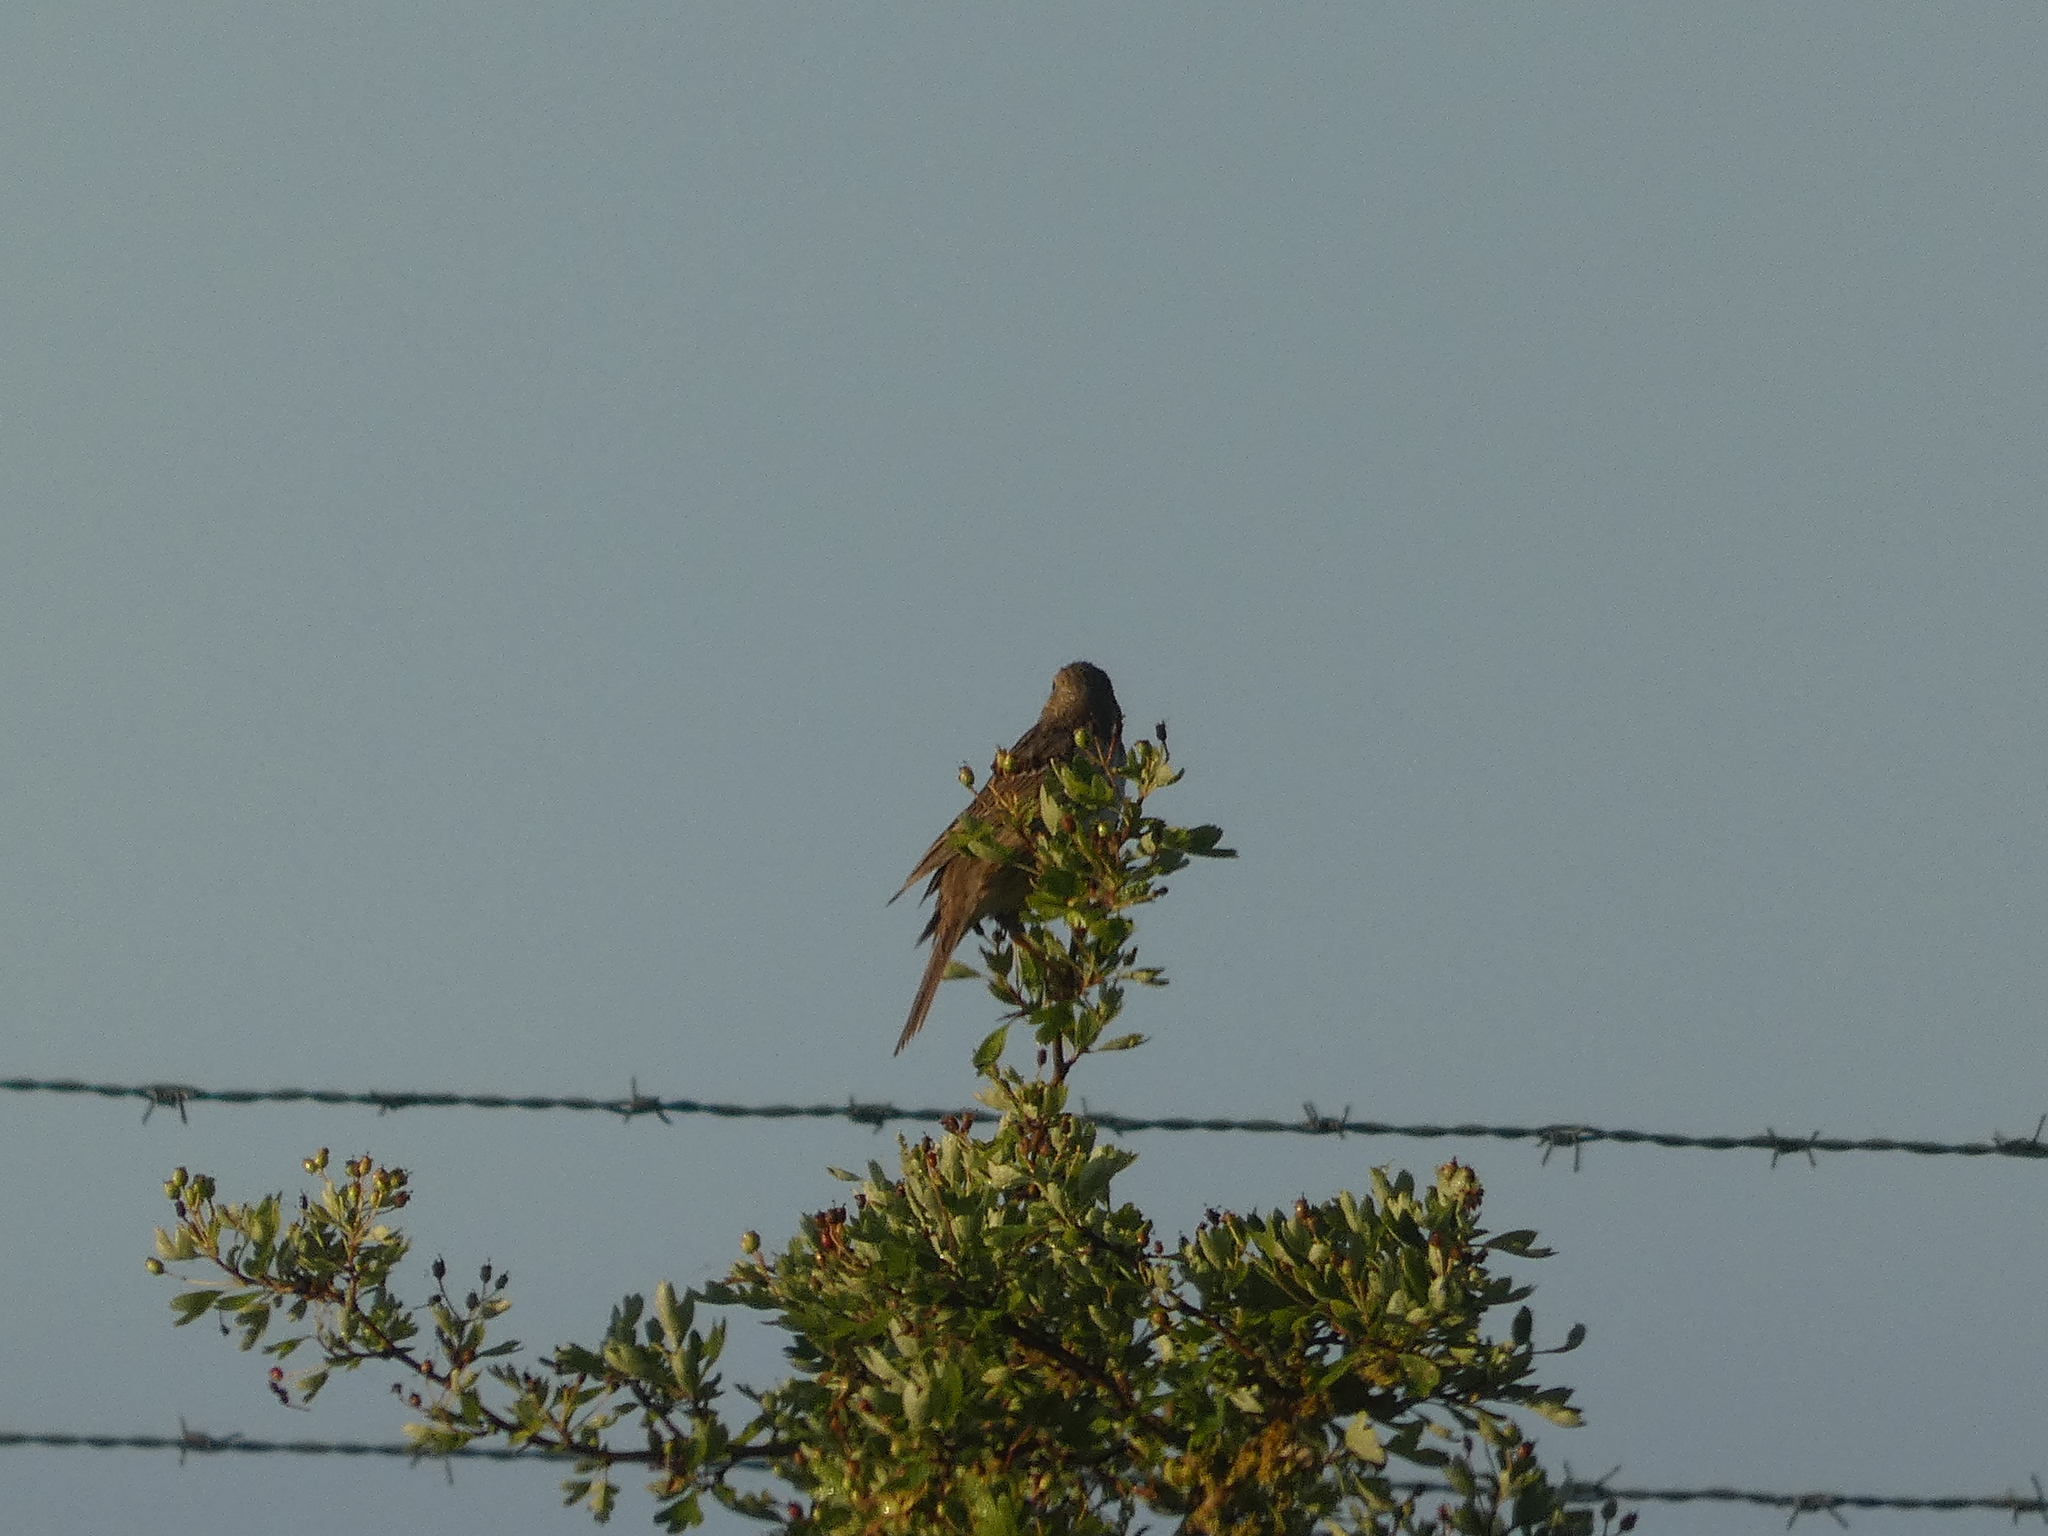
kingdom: Animalia
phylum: Chordata
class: Aves
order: Passeriformes
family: Emberizidae
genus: Emberiza
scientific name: Emberiza calandra
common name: Corn bunting
